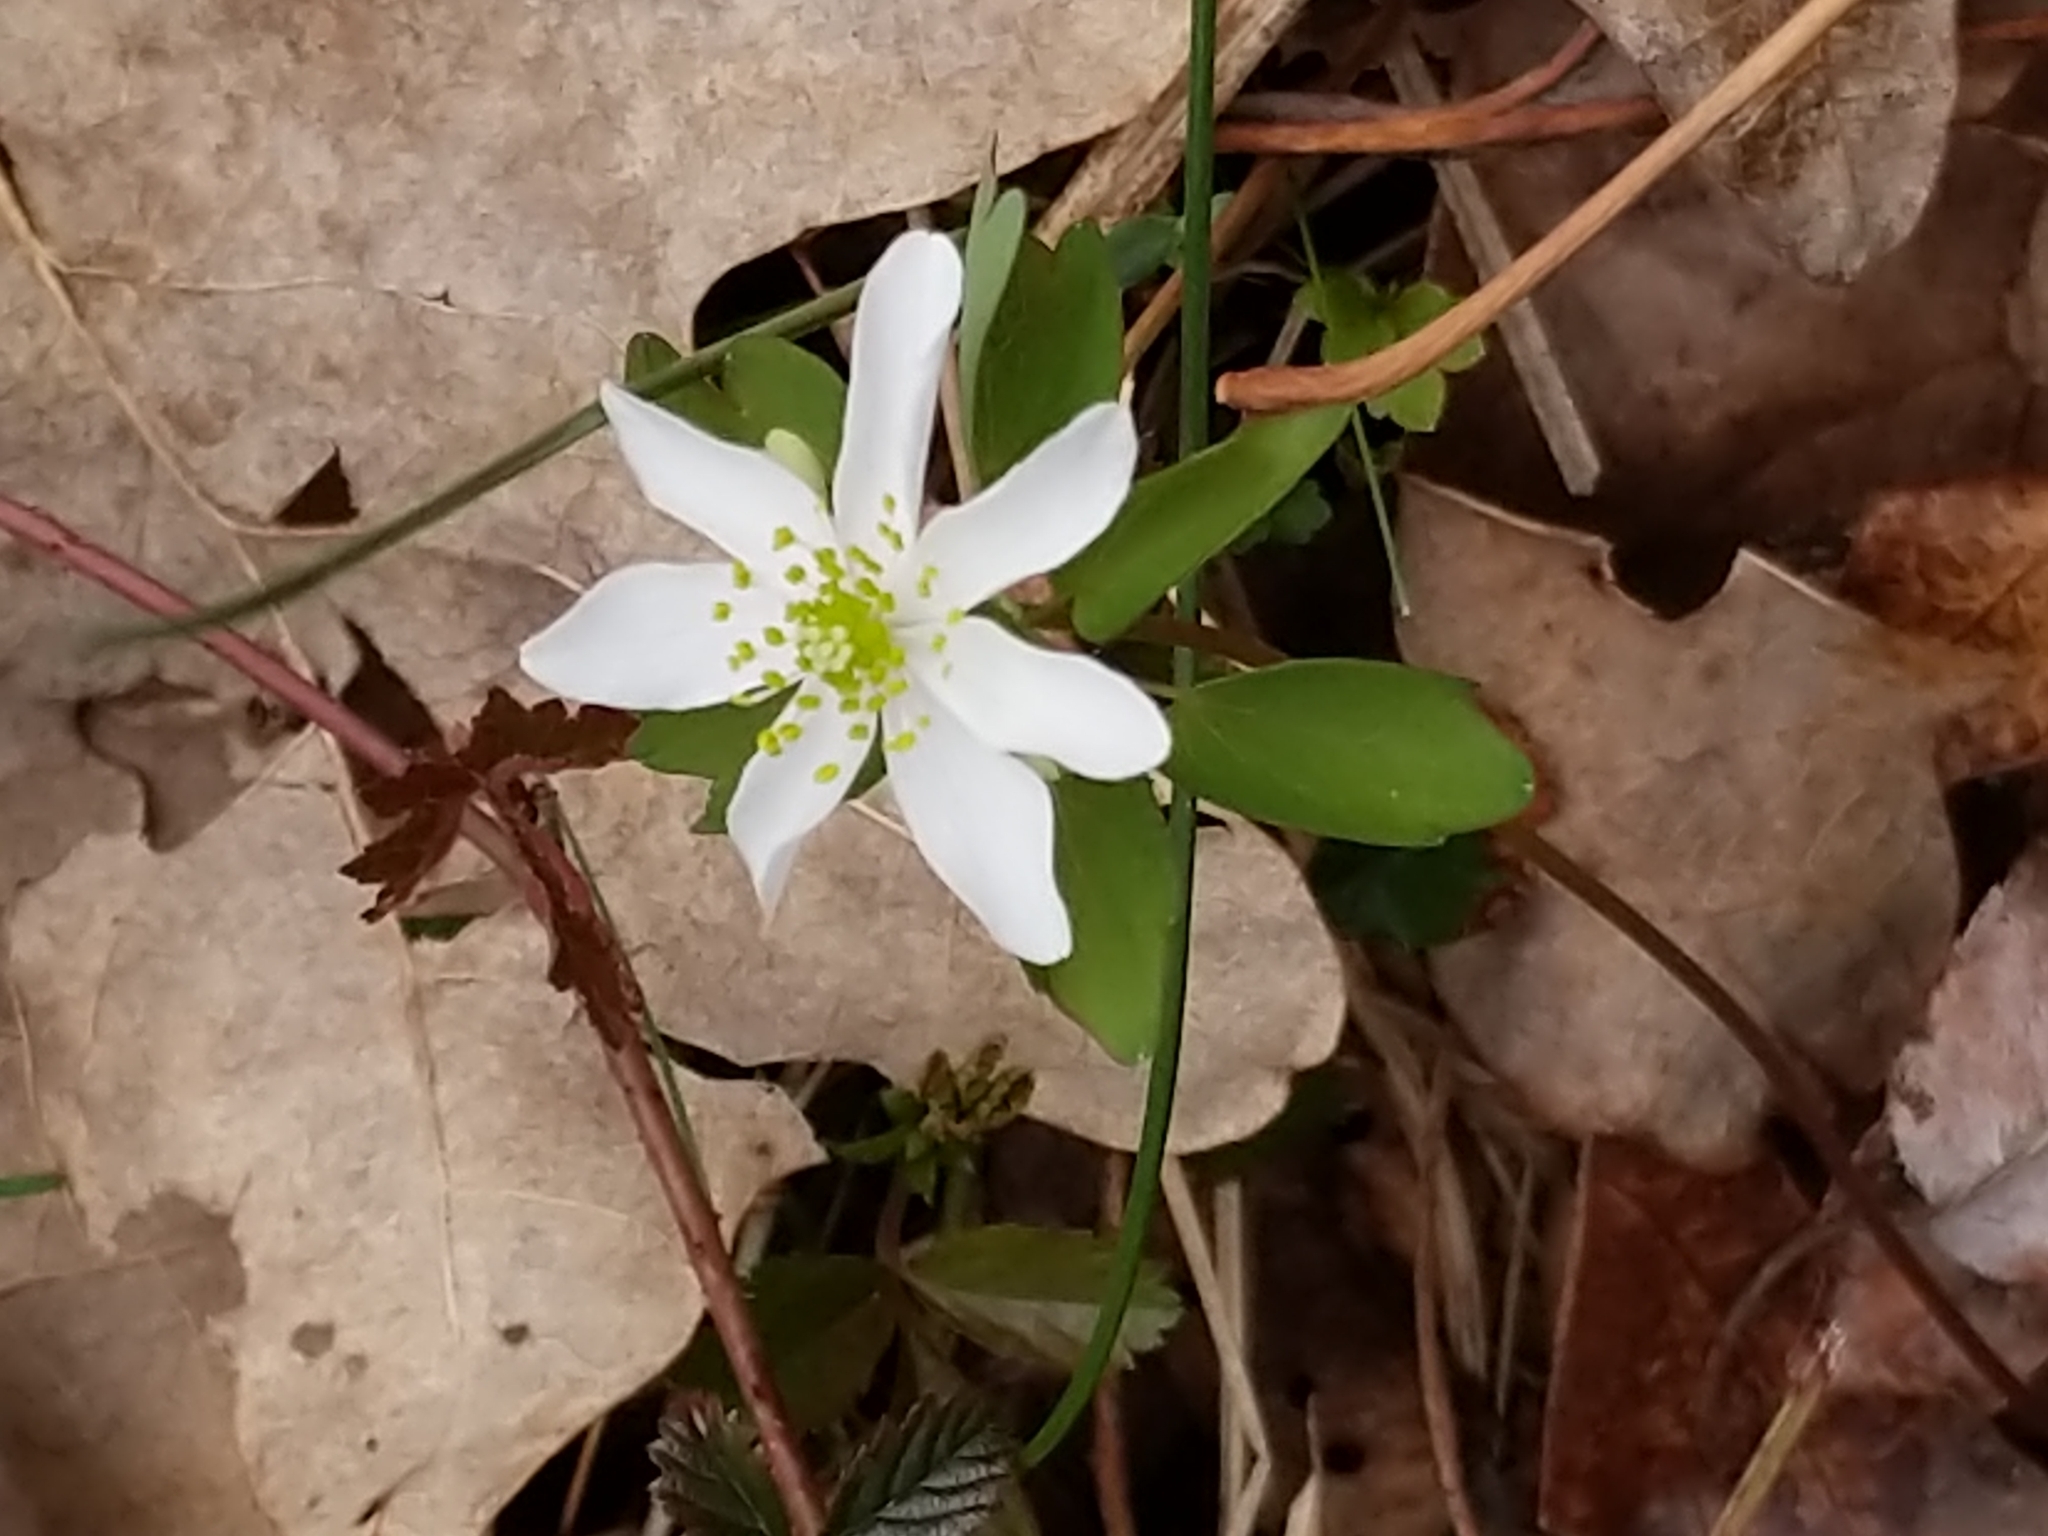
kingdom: Plantae
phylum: Tracheophyta
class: Magnoliopsida
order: Ranunculales
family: Ranunculaceae
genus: Thalictrum
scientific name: Thalictrum thalictroides
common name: Rue-anemone
